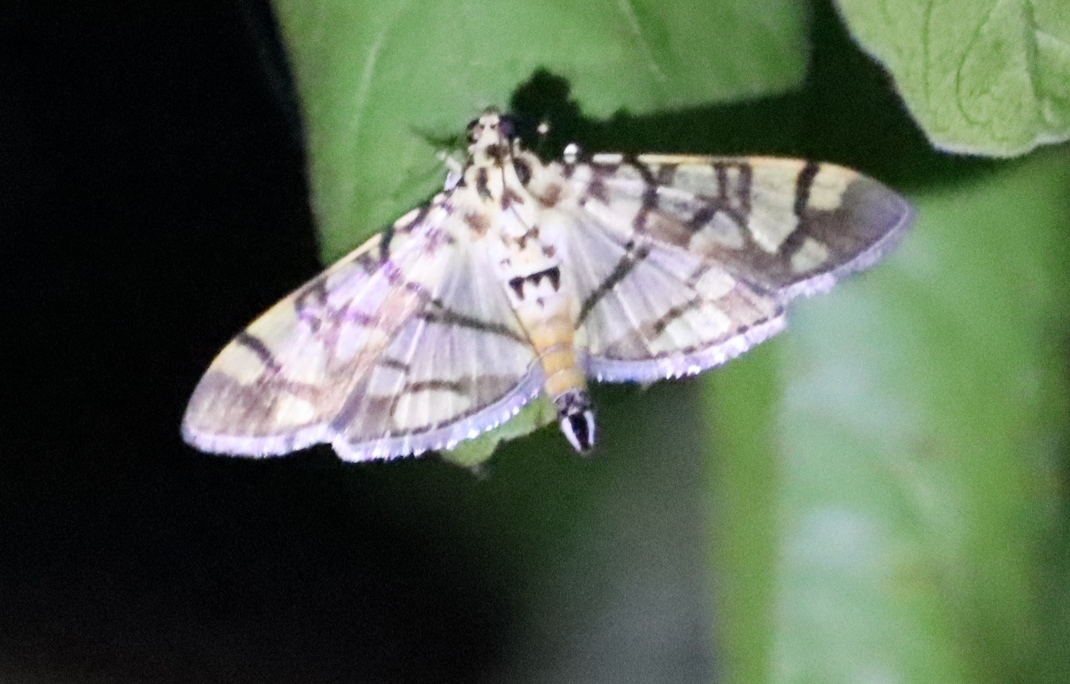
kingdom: Animalia
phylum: Arthropoda
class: Insecta
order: Lepidoptera
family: Crambidae
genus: Pardomima
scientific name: Pardomima callixantha
